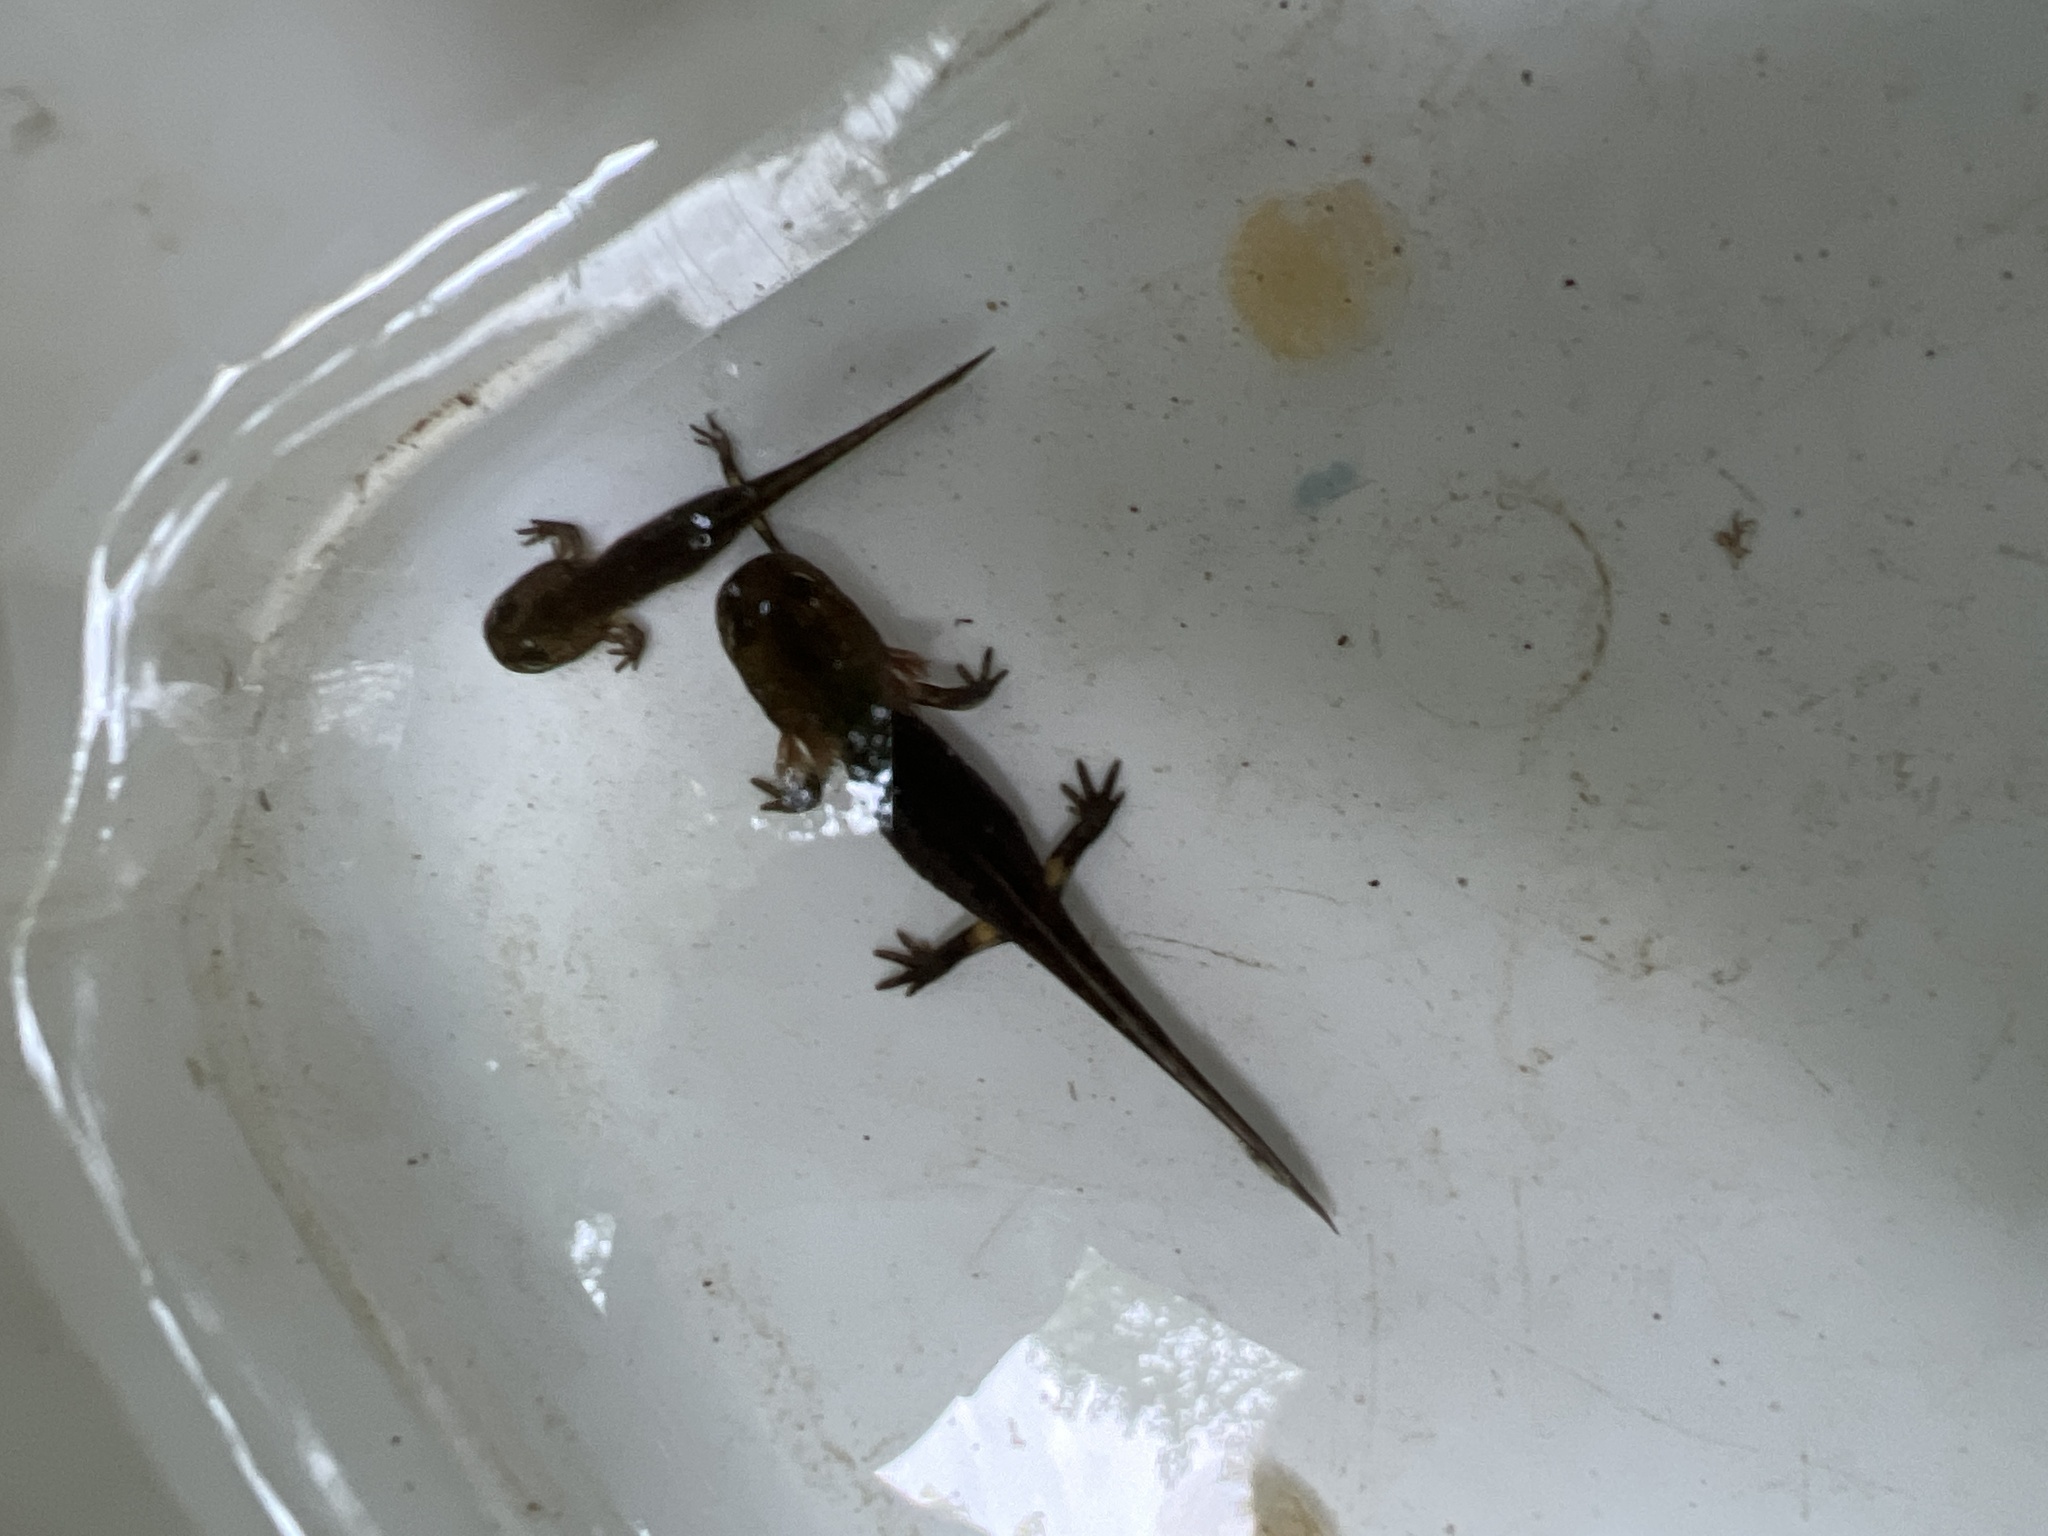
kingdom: Animalia
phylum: Chordata
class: Amphibia
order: Caudata
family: Salamandridae
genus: Salamandra
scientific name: Salamandra salamandra
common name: Fire salamander
